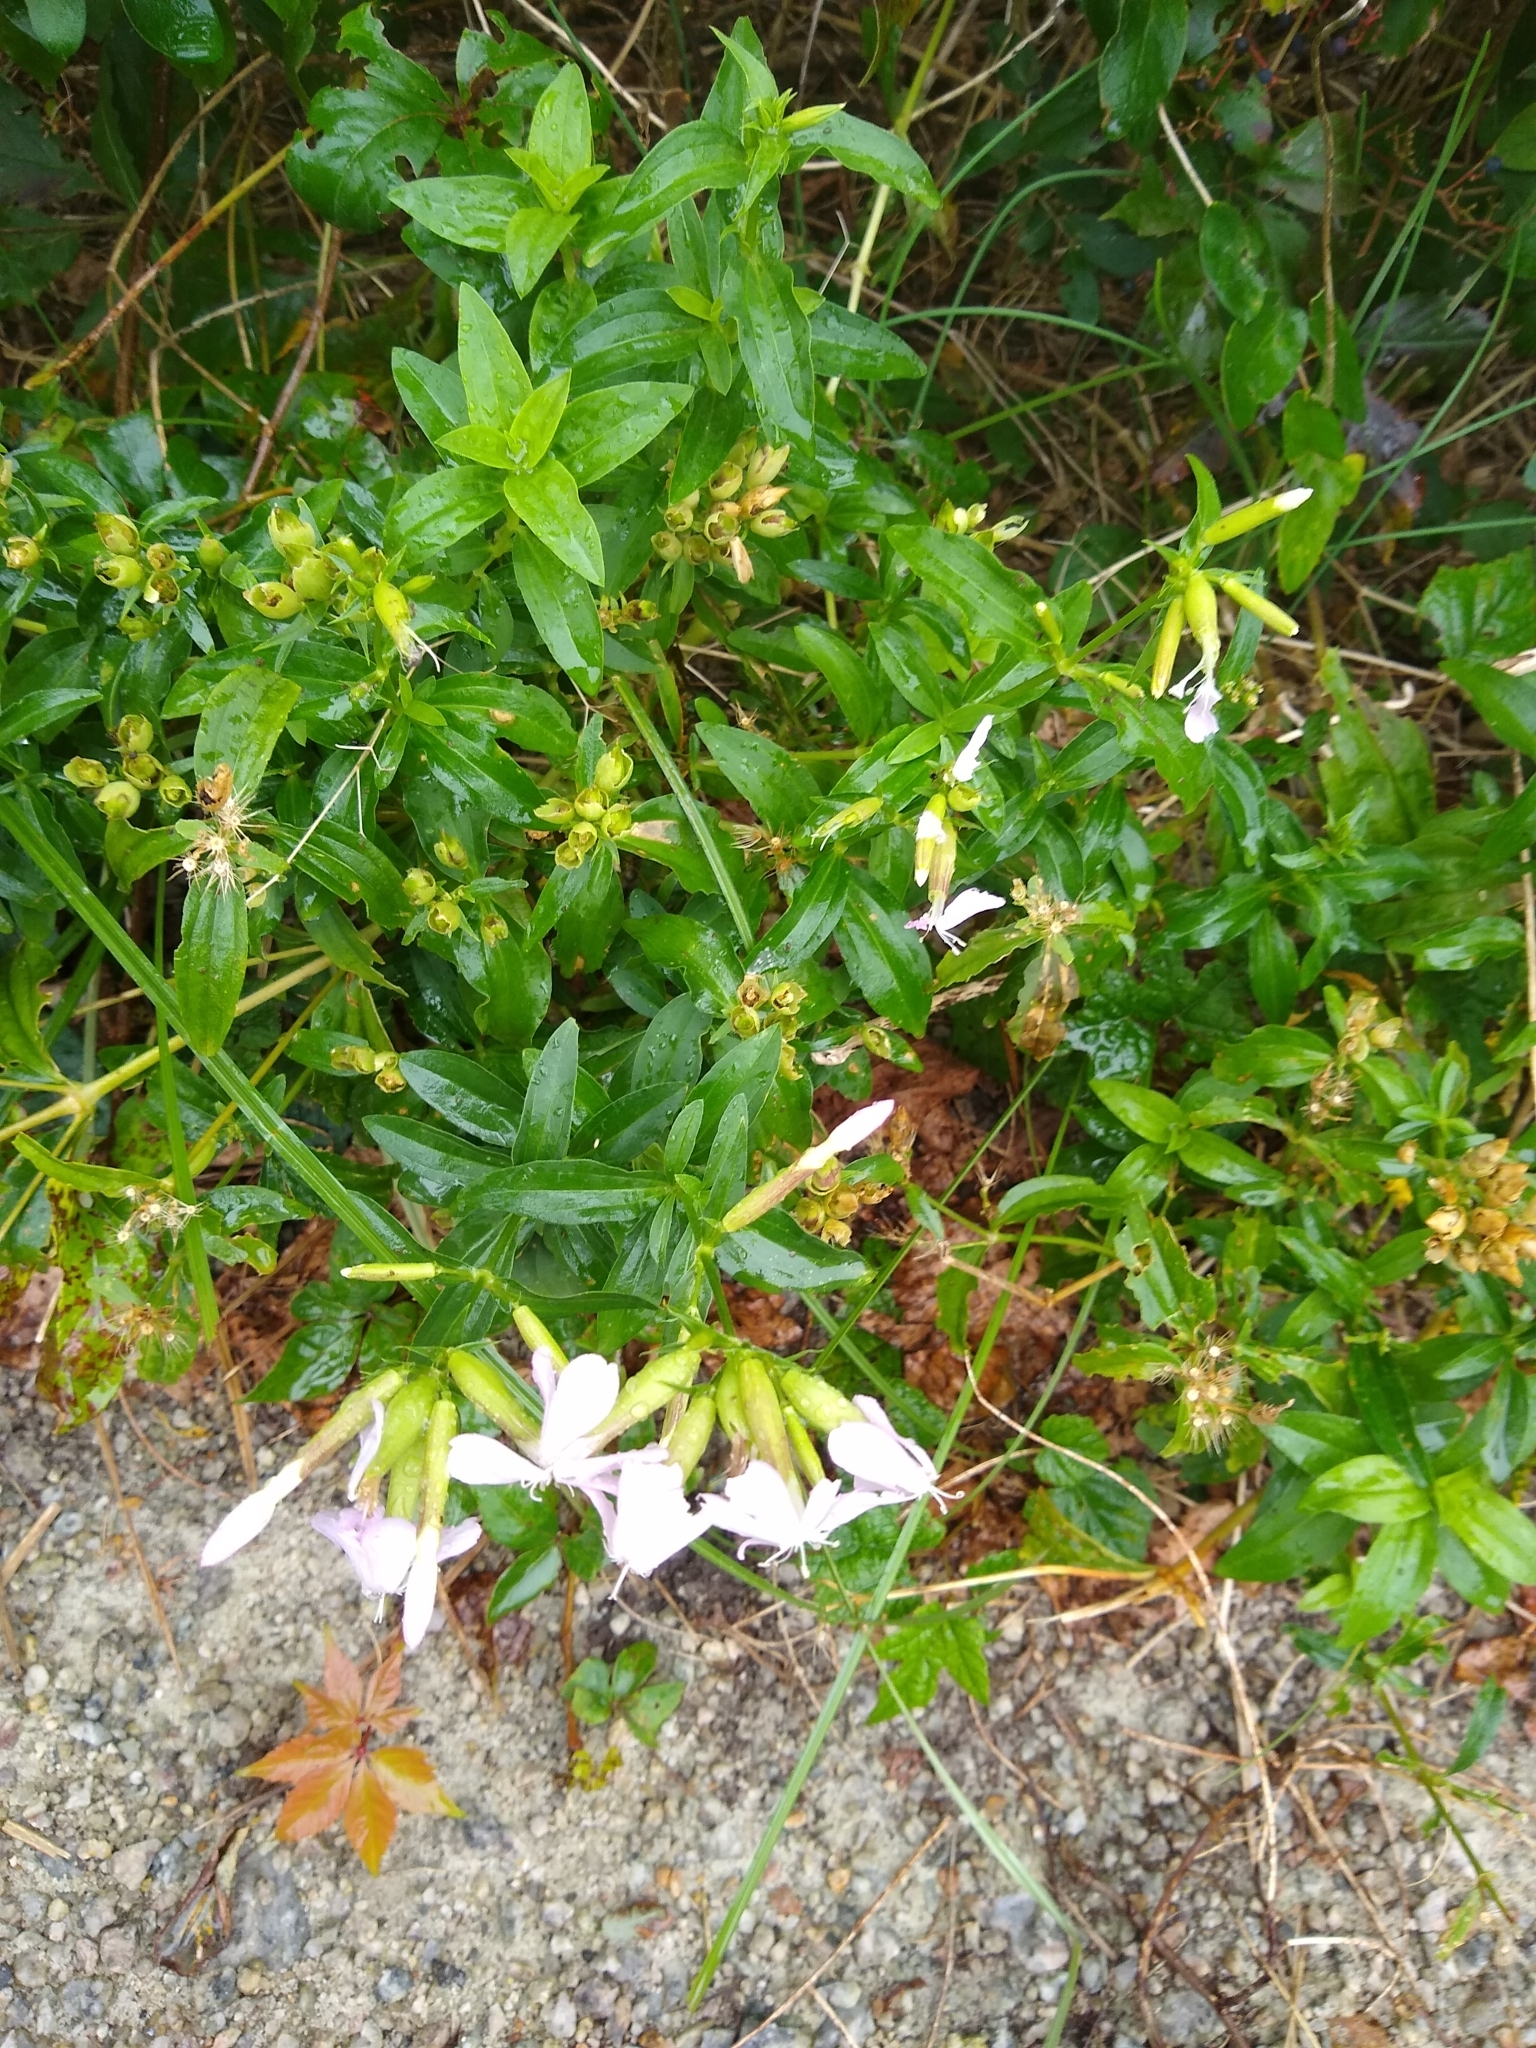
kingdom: Plantae
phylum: Tracheophyta
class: Magnoliopsida
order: Caryophyllales
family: Caryophyllaceae
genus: Saponaria
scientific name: Saponaria officinalis
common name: Soapwort
